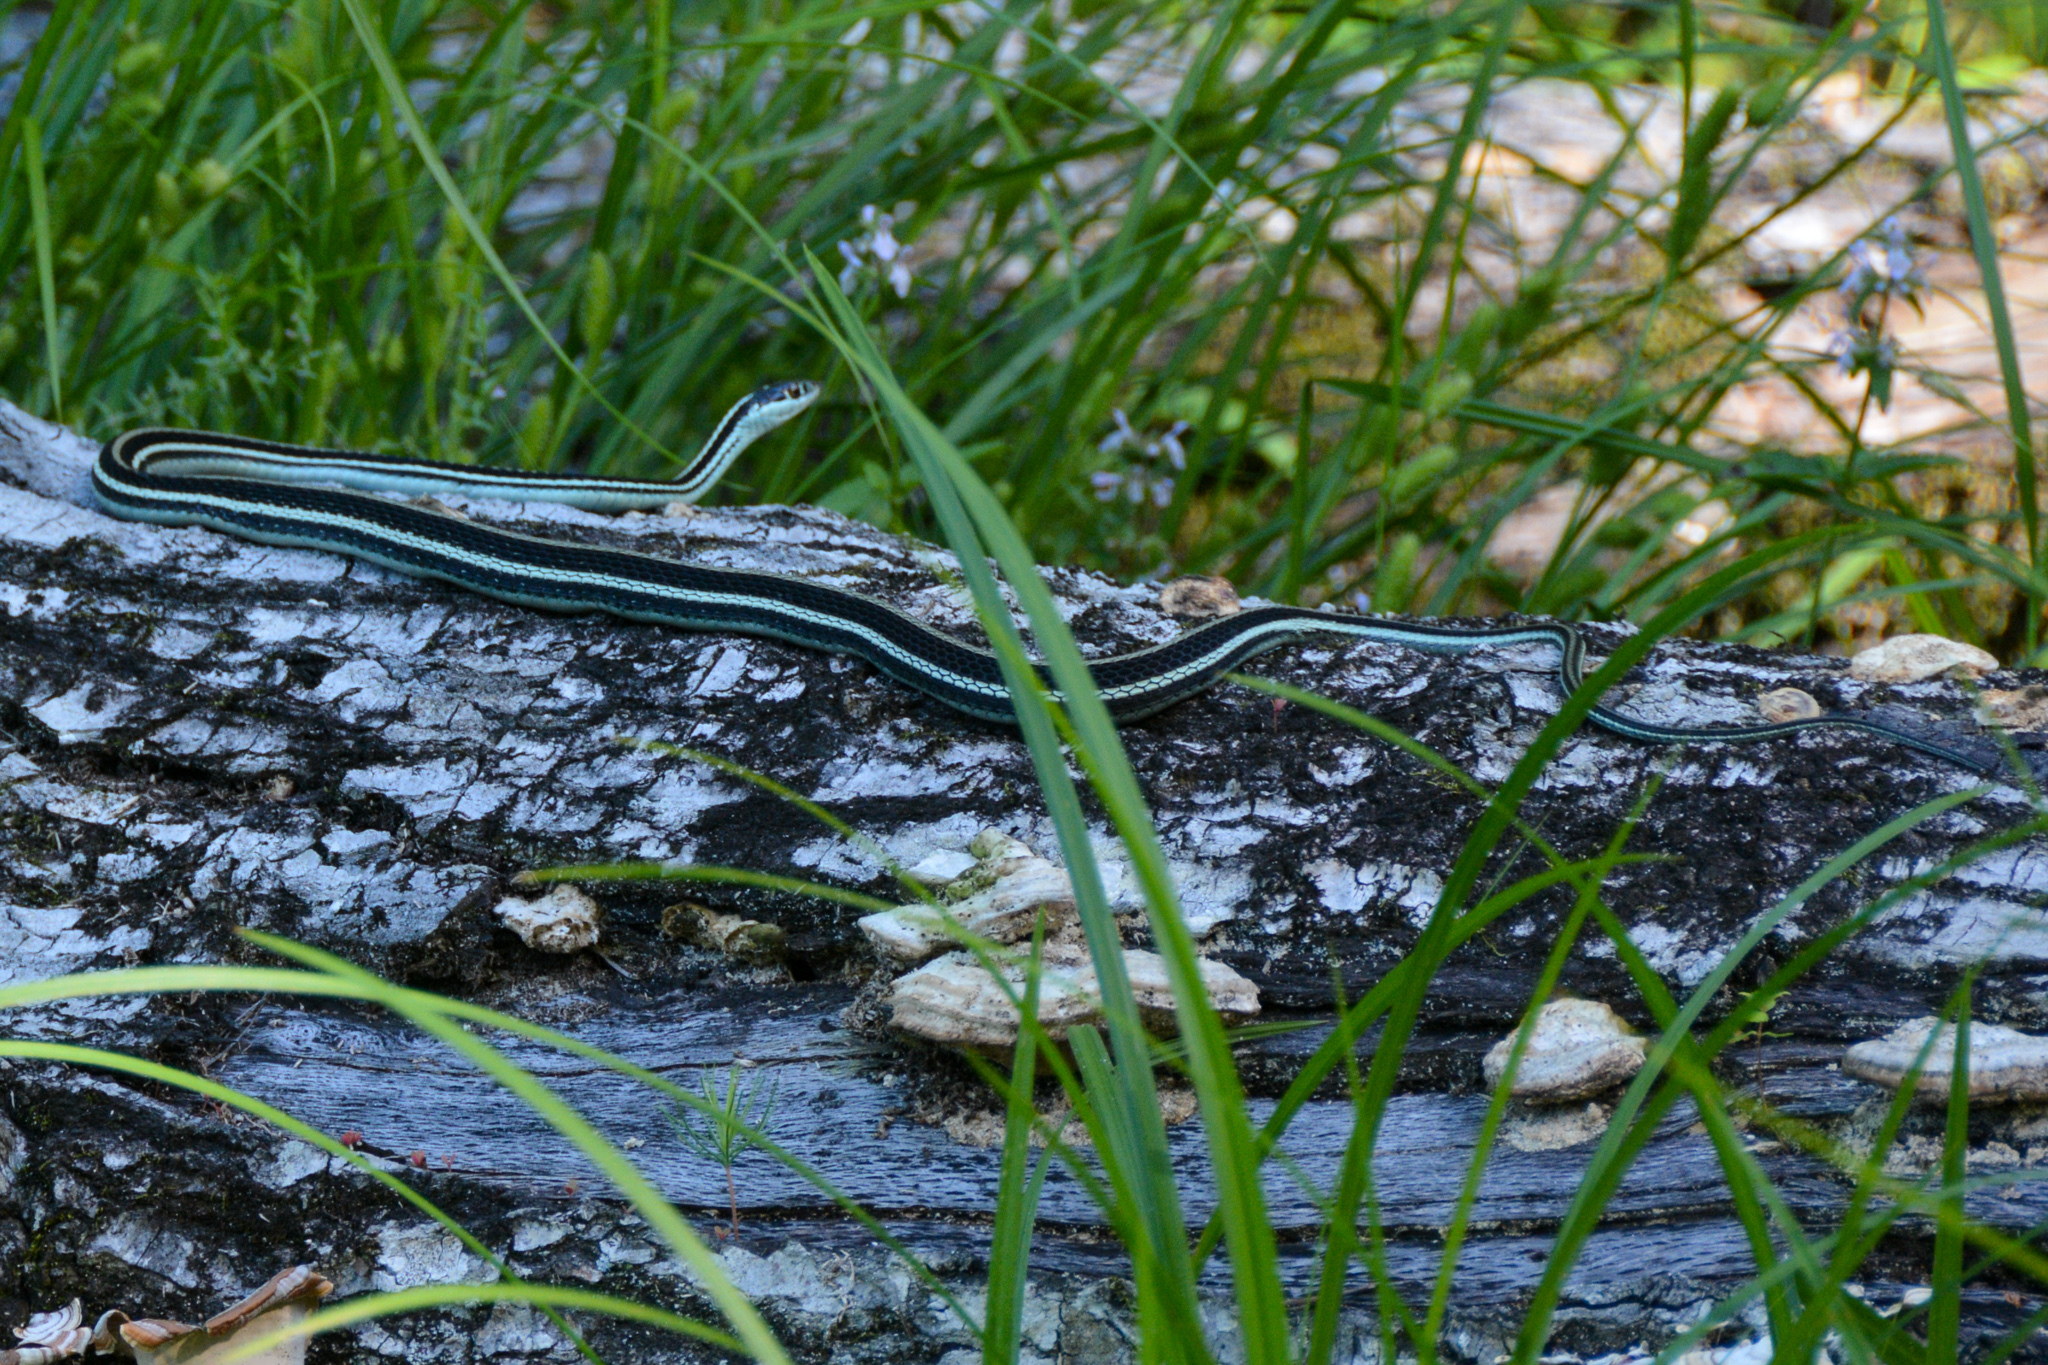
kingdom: Animalia
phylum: Chordata
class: Squamata
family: Colubridae
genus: Thamnophis
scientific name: Thamnophis proximus
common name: Western ribbon snake
